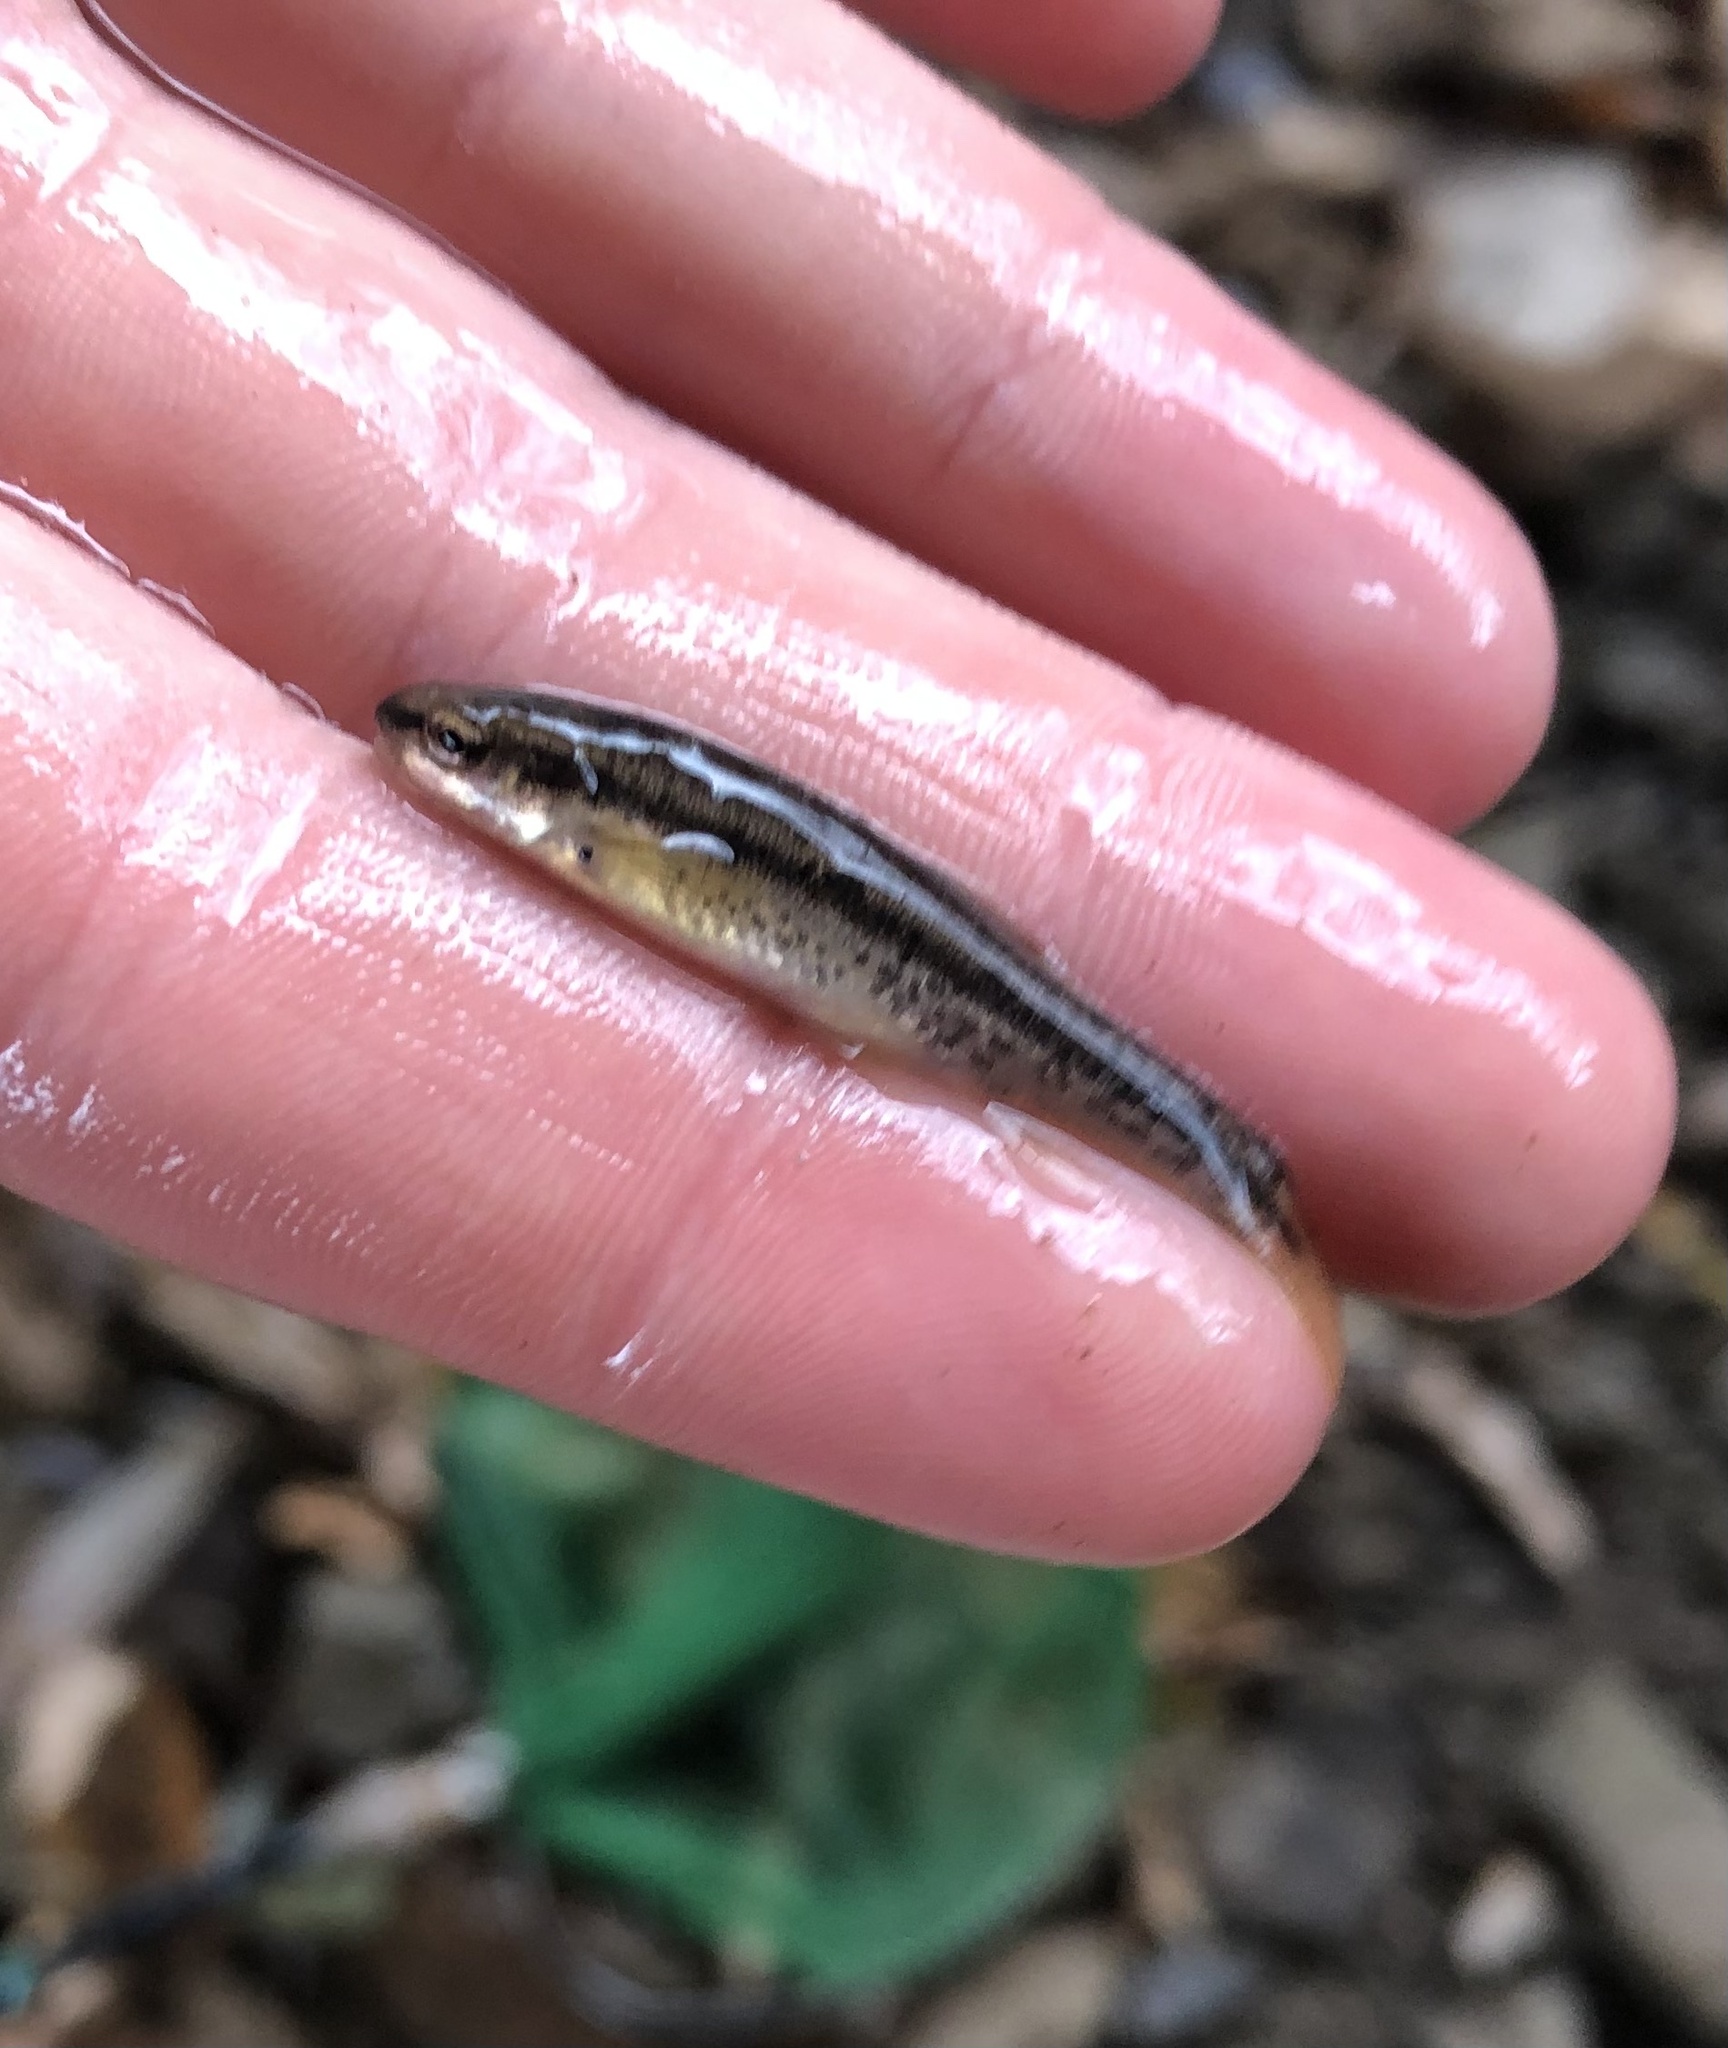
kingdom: Animalia
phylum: Chordata
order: Cypriniformes
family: Cyprinidae
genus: Rhinichthys
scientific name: Rhinichthys obtusus
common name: Western blacknose dace
